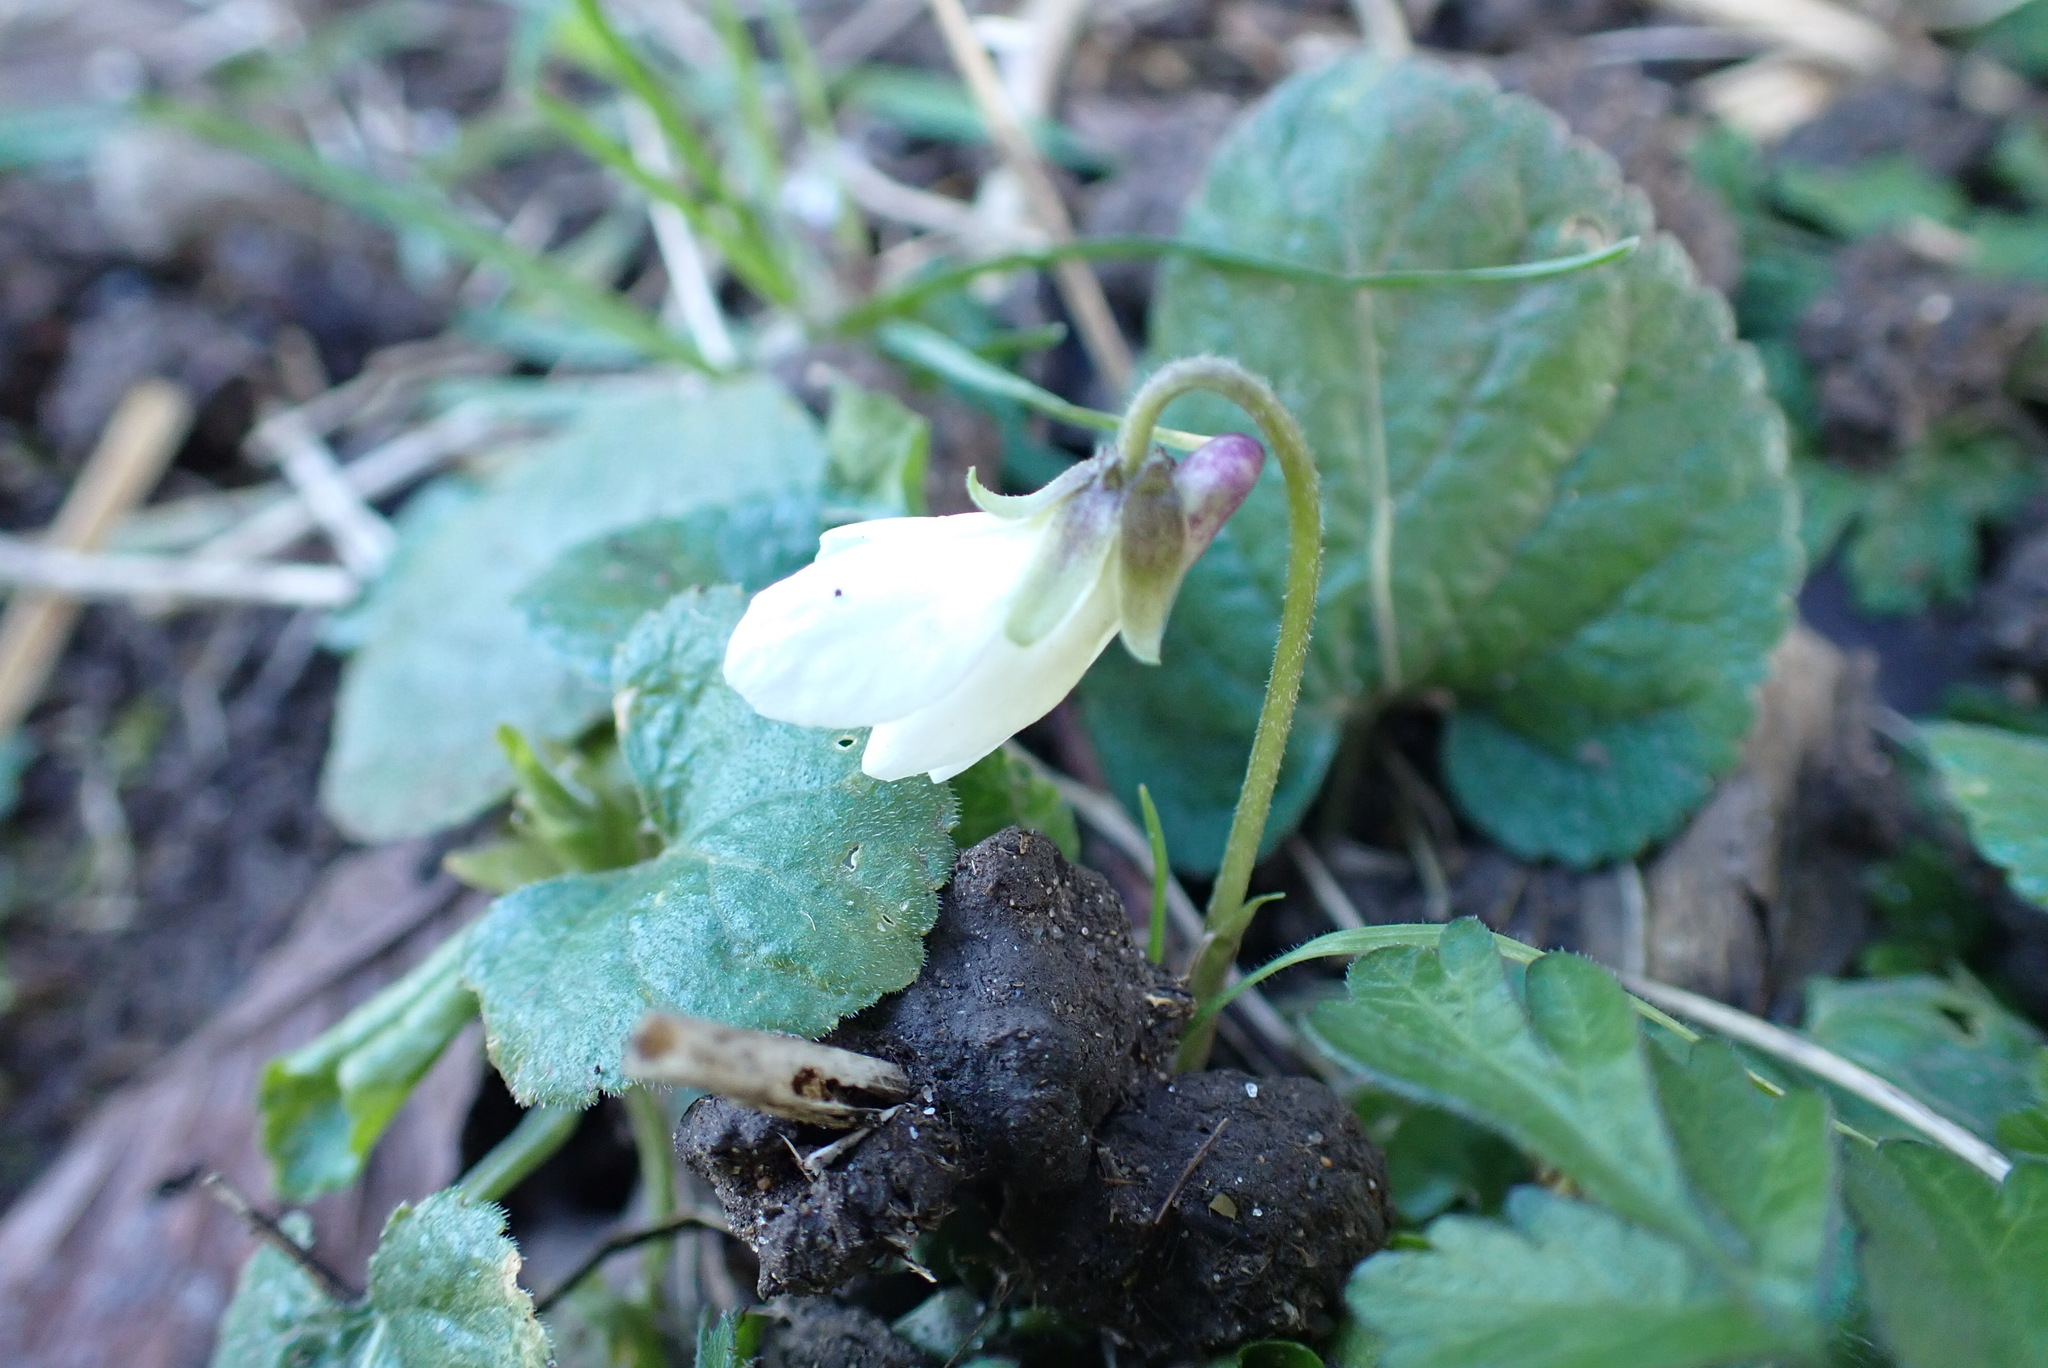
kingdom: Plantae
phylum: Tracheophyta
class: Magnoliopsida
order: Malpighiales
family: Violaceae
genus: Viola
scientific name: Viola odorata
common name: Sweet violet
